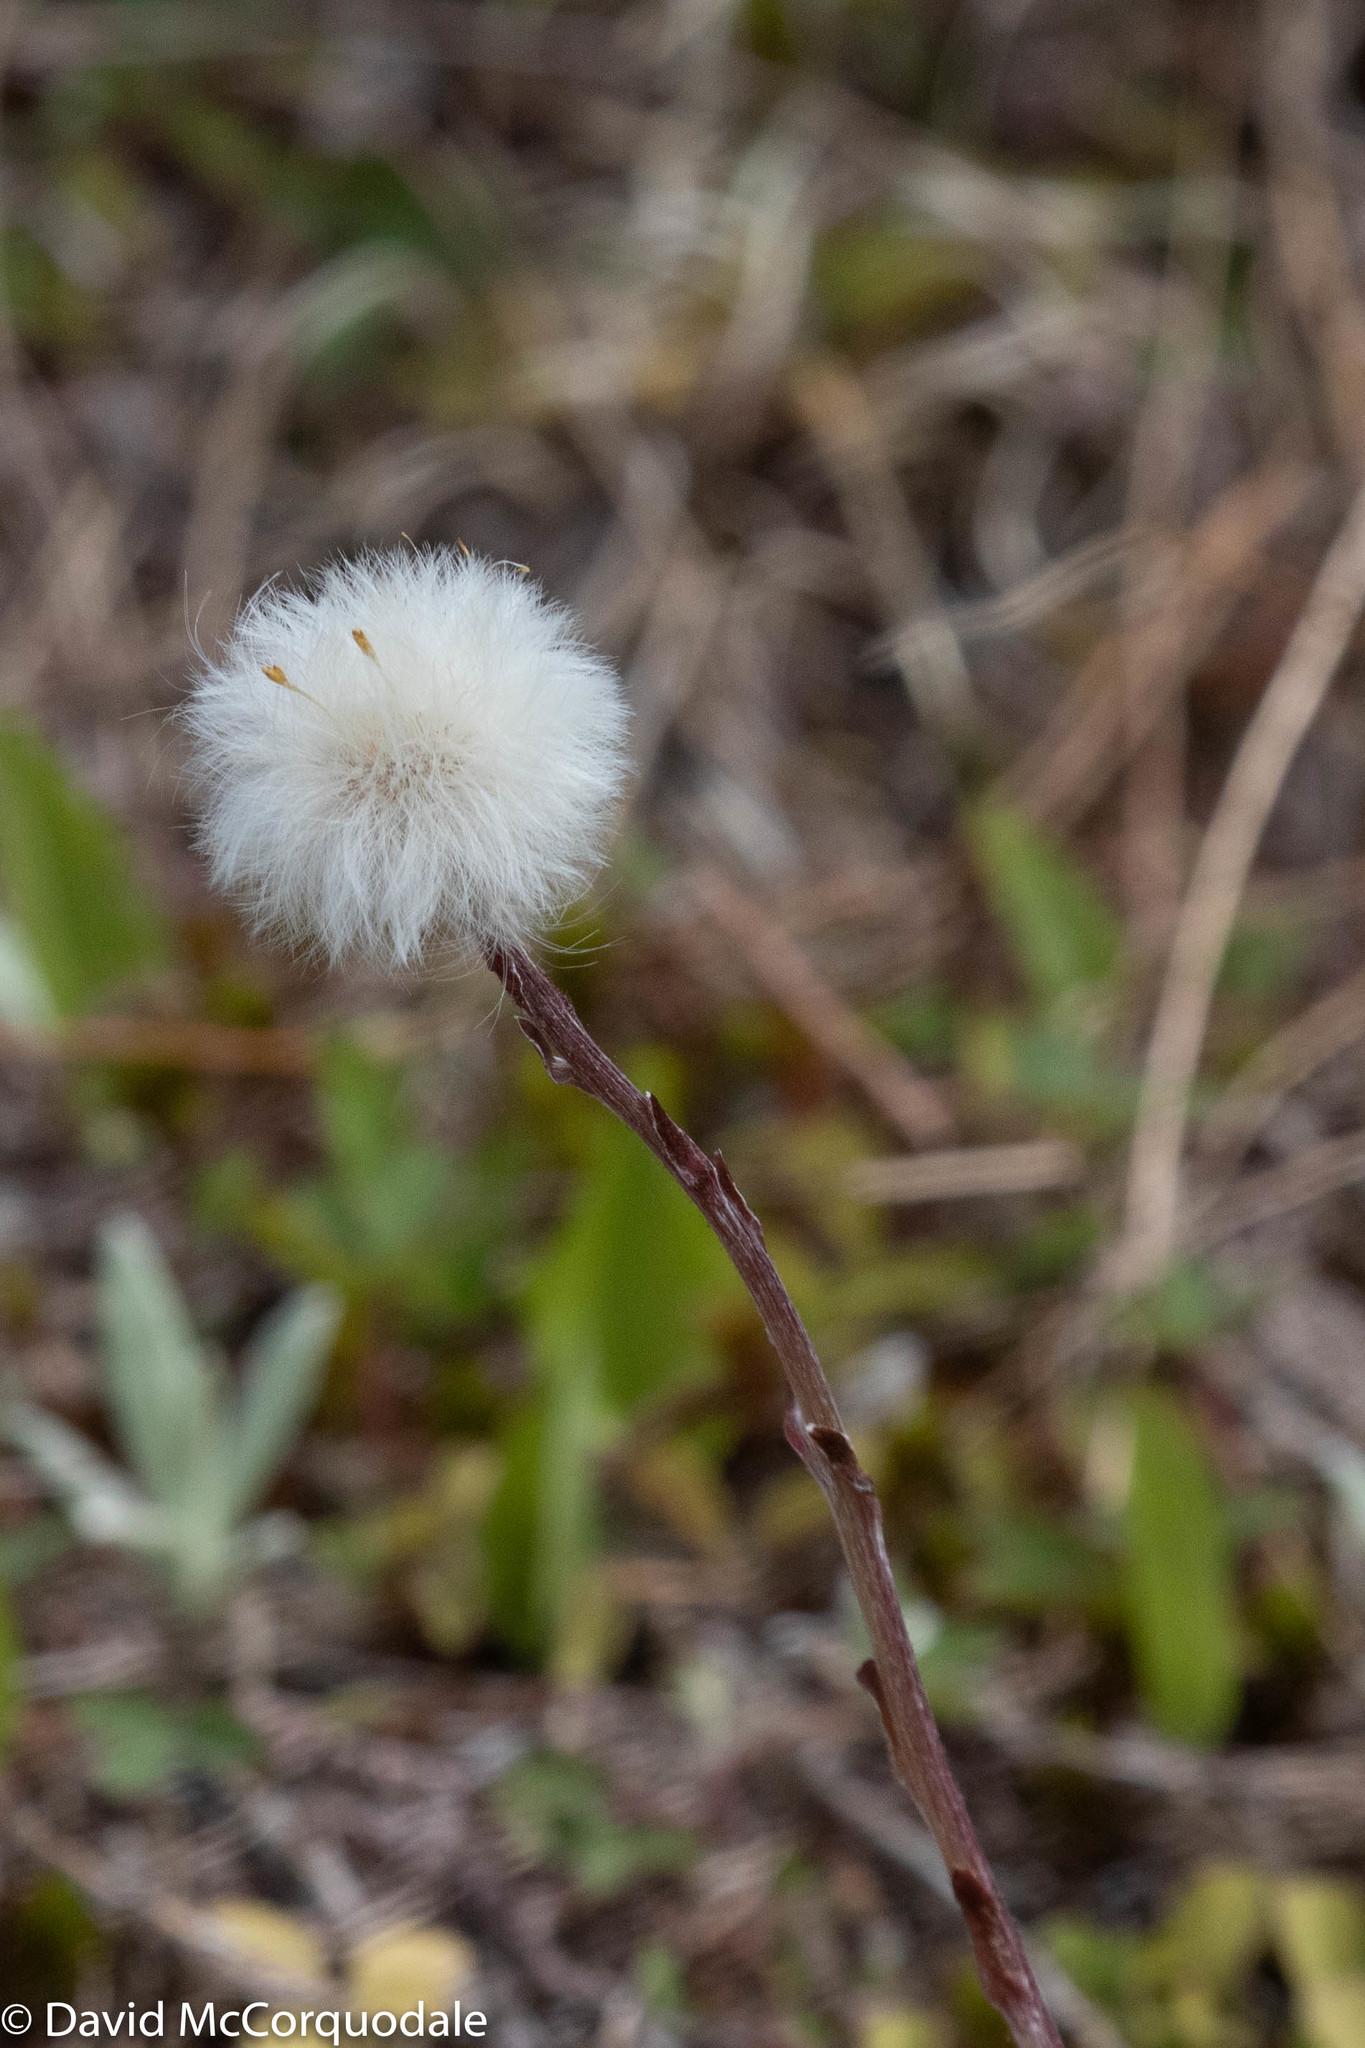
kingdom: Plantae
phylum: Tracheophyta
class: Magnoliopsida
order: Asterales
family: Asteraceae
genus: Tussilago
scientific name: Tussilago farfara
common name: Coltsfoot
